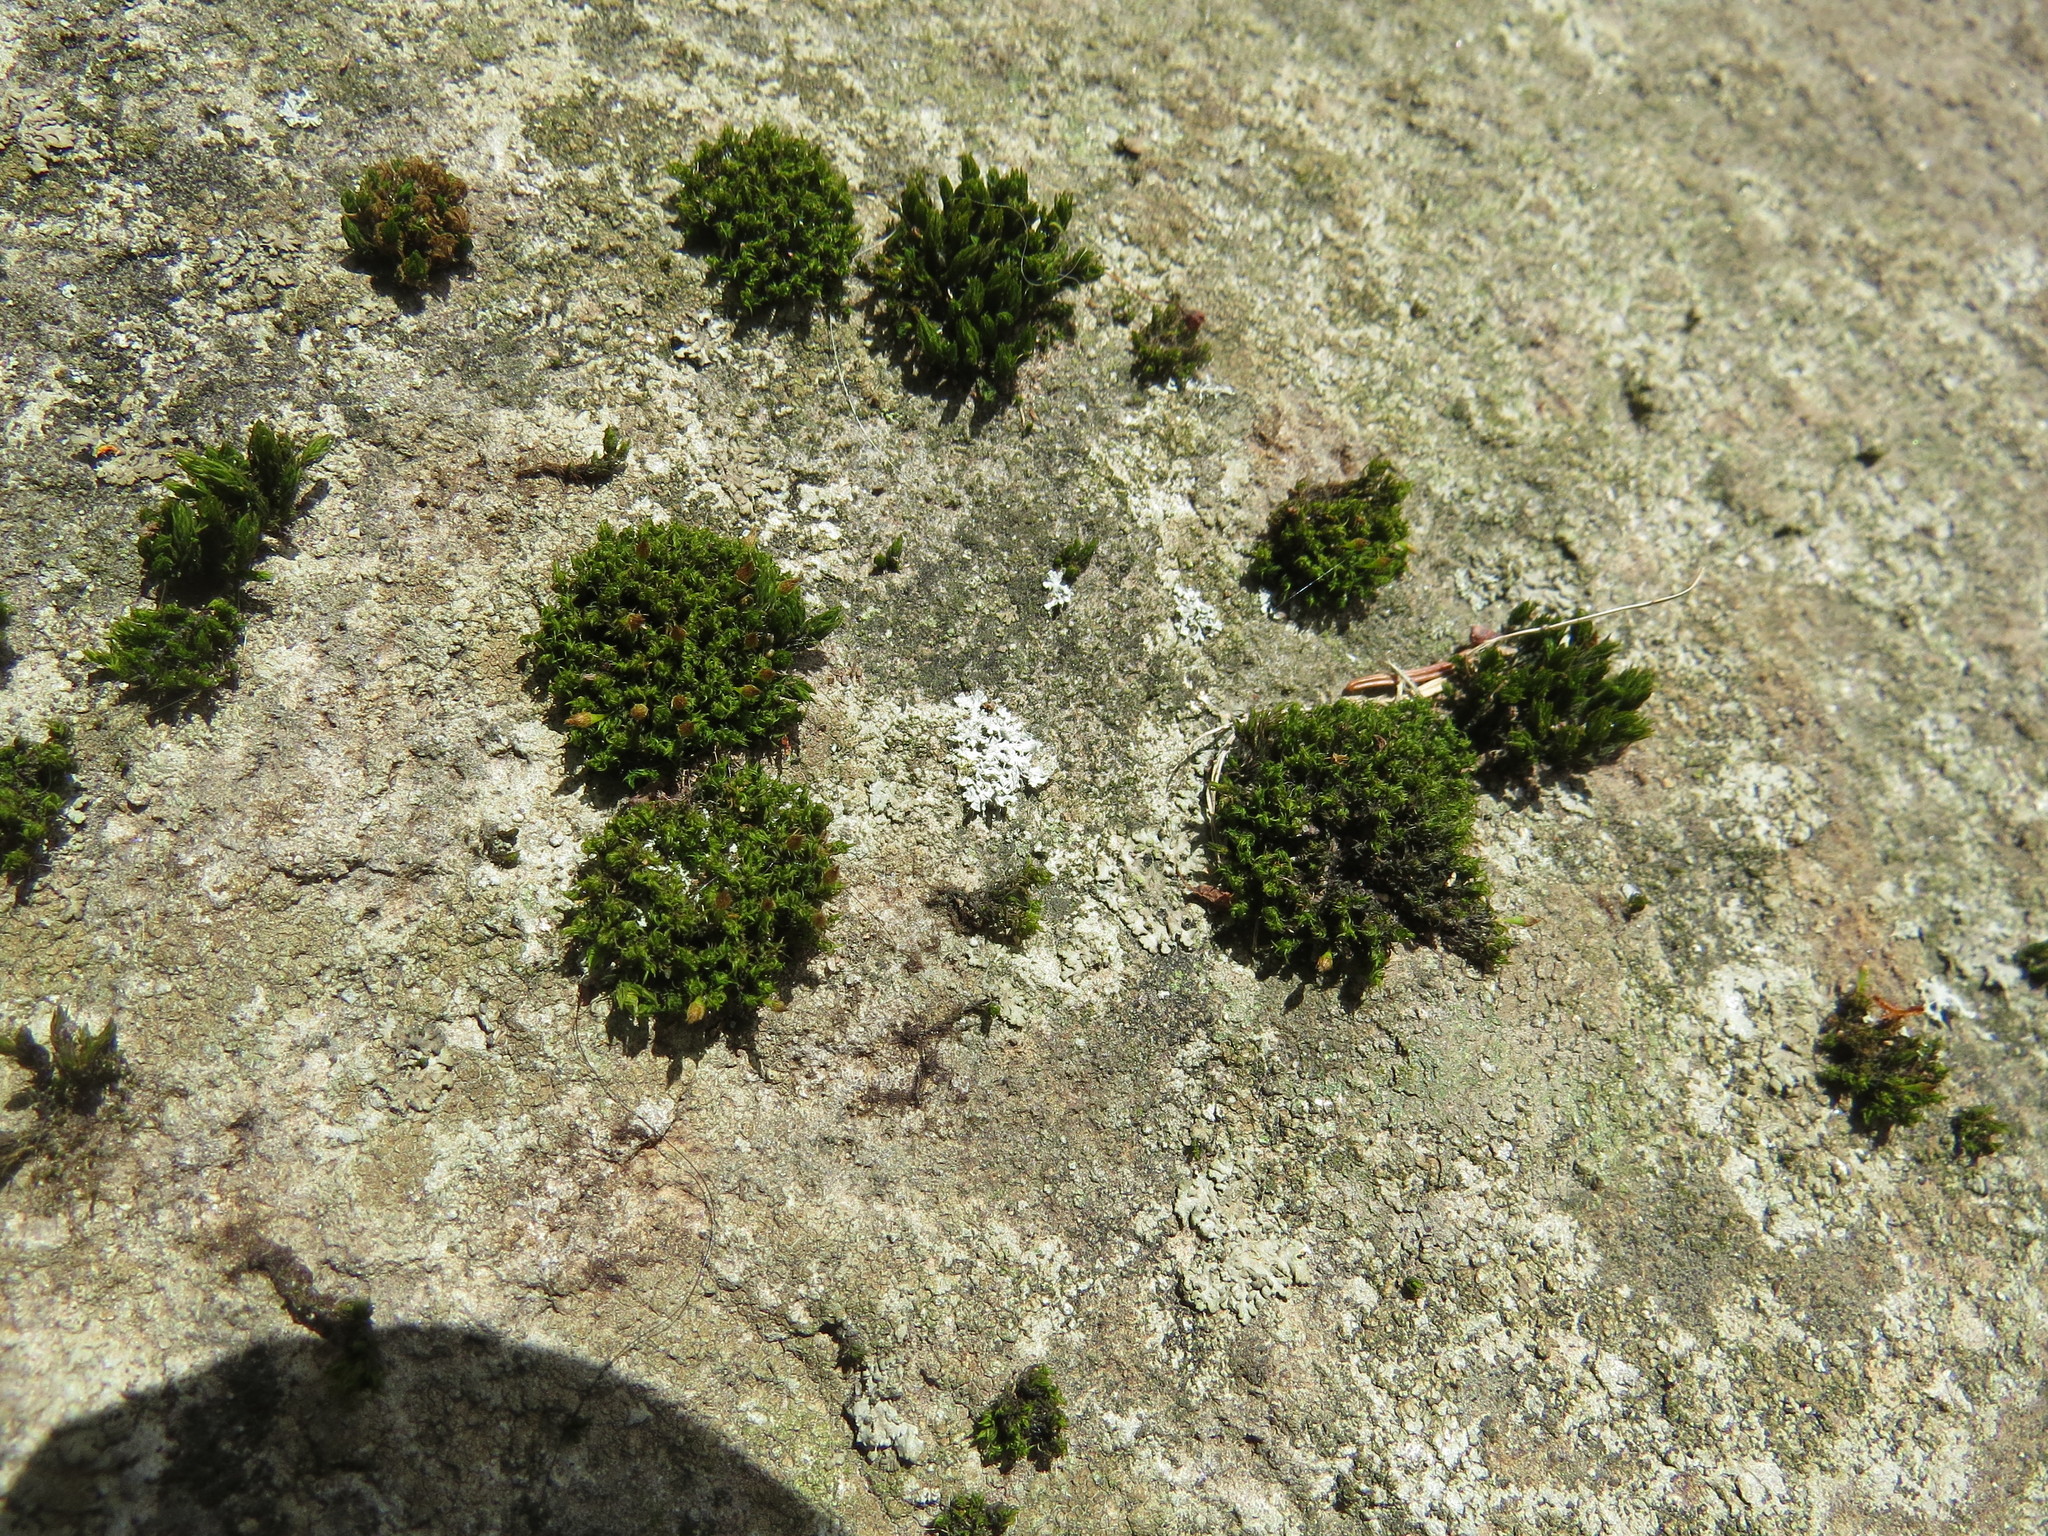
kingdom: Plantae
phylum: Bryophyta
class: Bryopsida
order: Orthotrichales
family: Orthotrichaceae
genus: Ulota
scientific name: Ulota crispa
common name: Crisped pincushion moss
